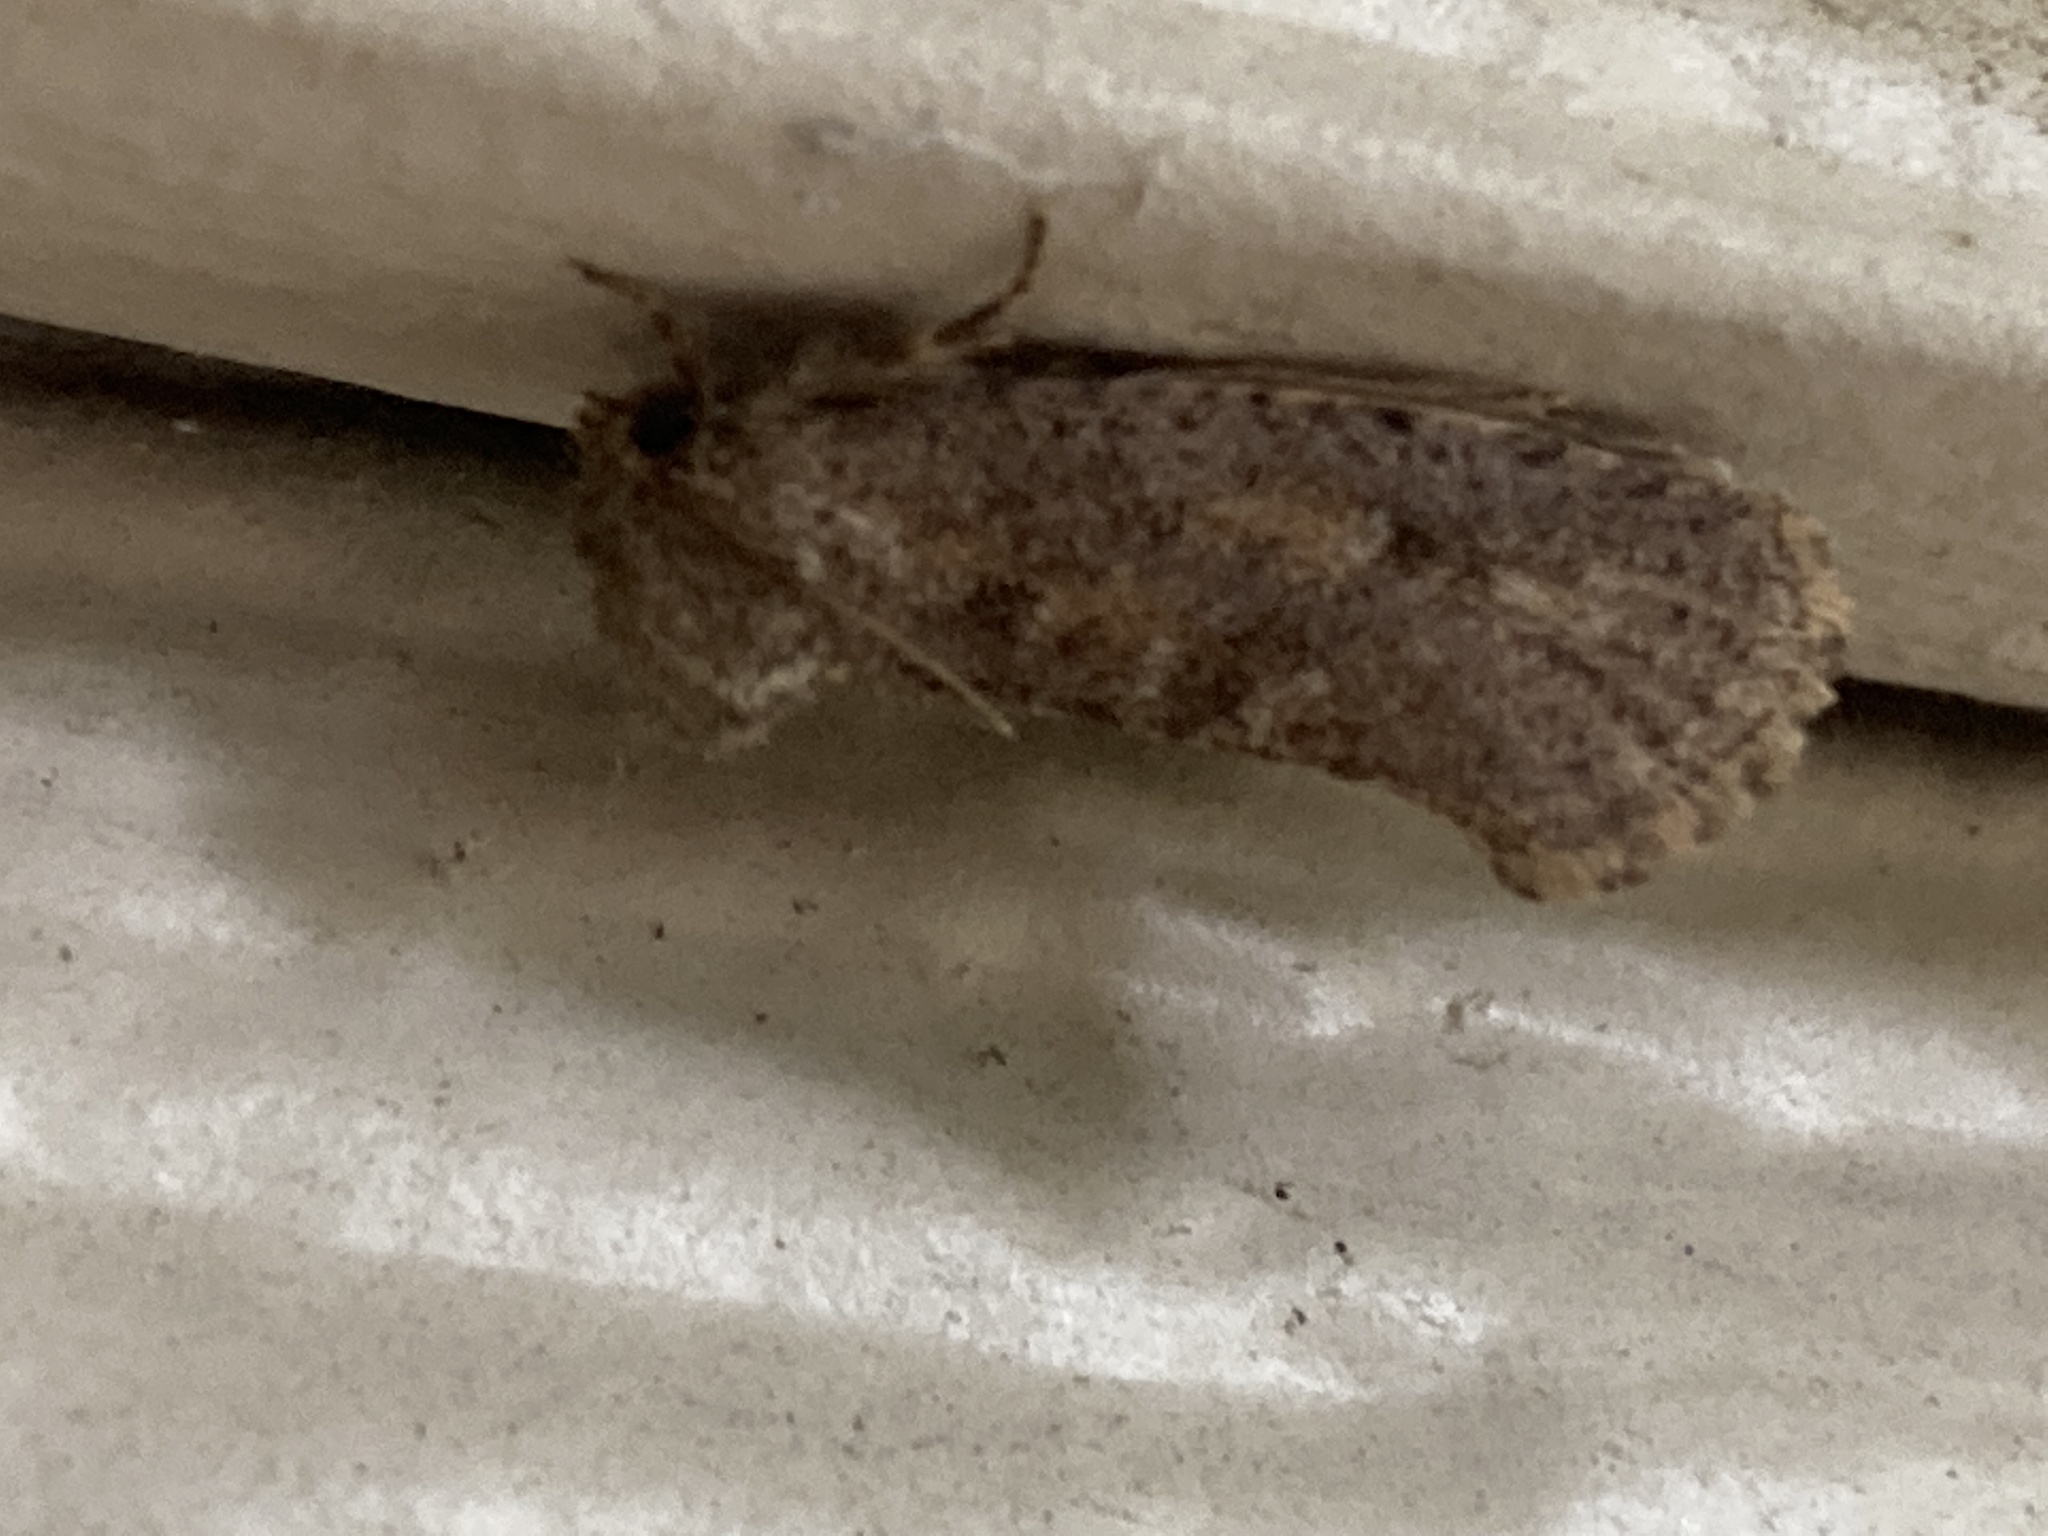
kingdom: Animalia
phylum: Arthropoda
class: Insecta
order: Lepidoptera
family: Tineidae
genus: Acrolophus
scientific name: Acrolophus arcanella
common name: Arcane grass tubeworm moth
